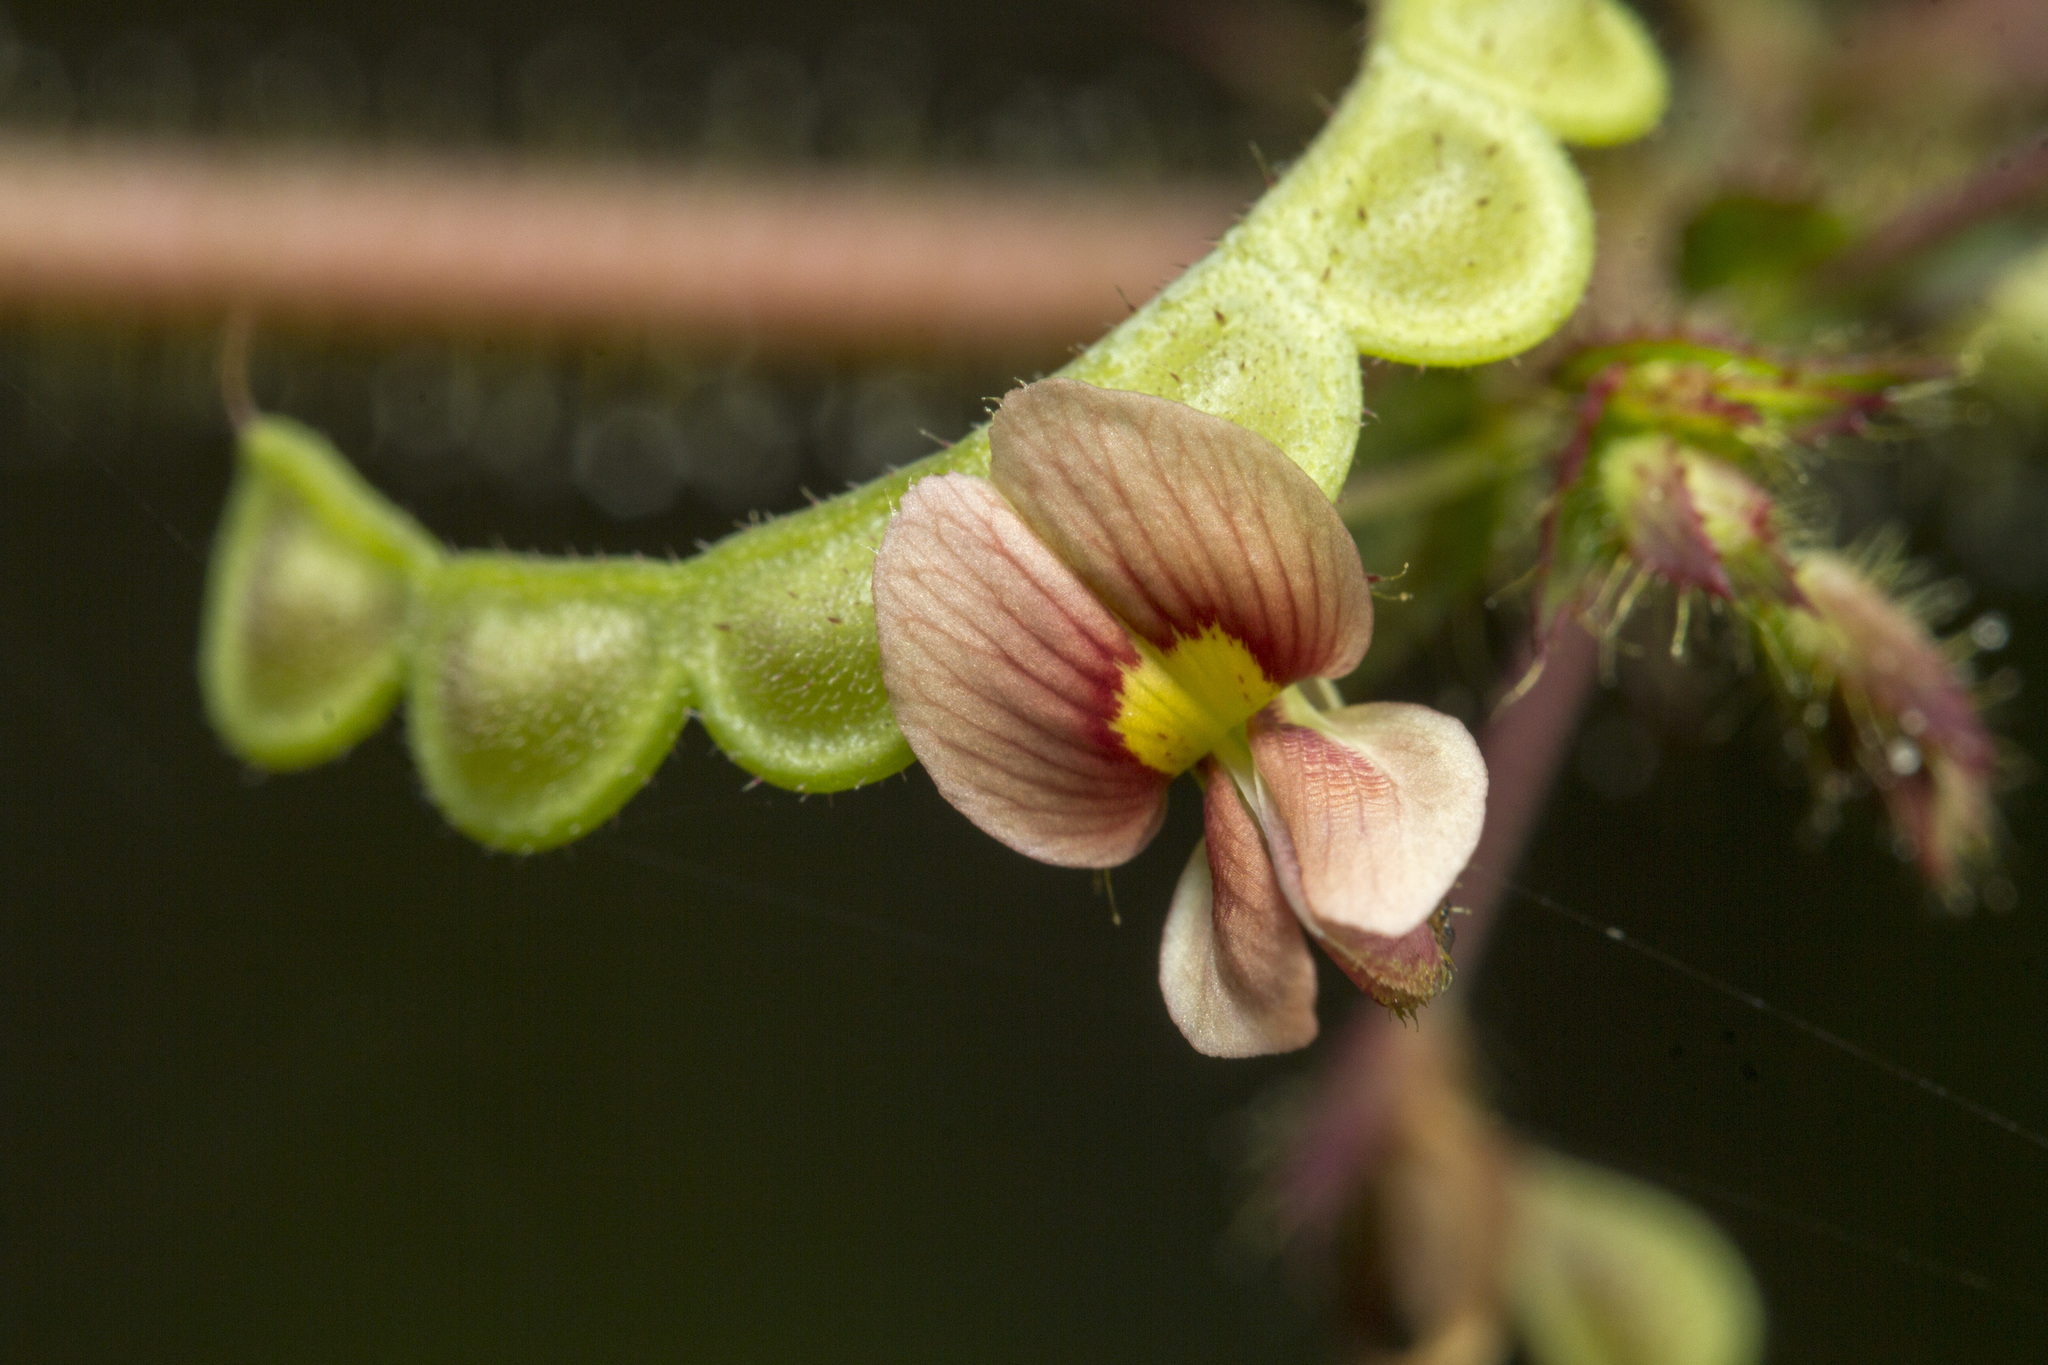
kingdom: Plantae
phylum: Tracheophyta
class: Magnoliopsida
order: Fabales
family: Fabaceae
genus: Aeschynomene
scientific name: Aeschynomene americana
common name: Joint-vetch
